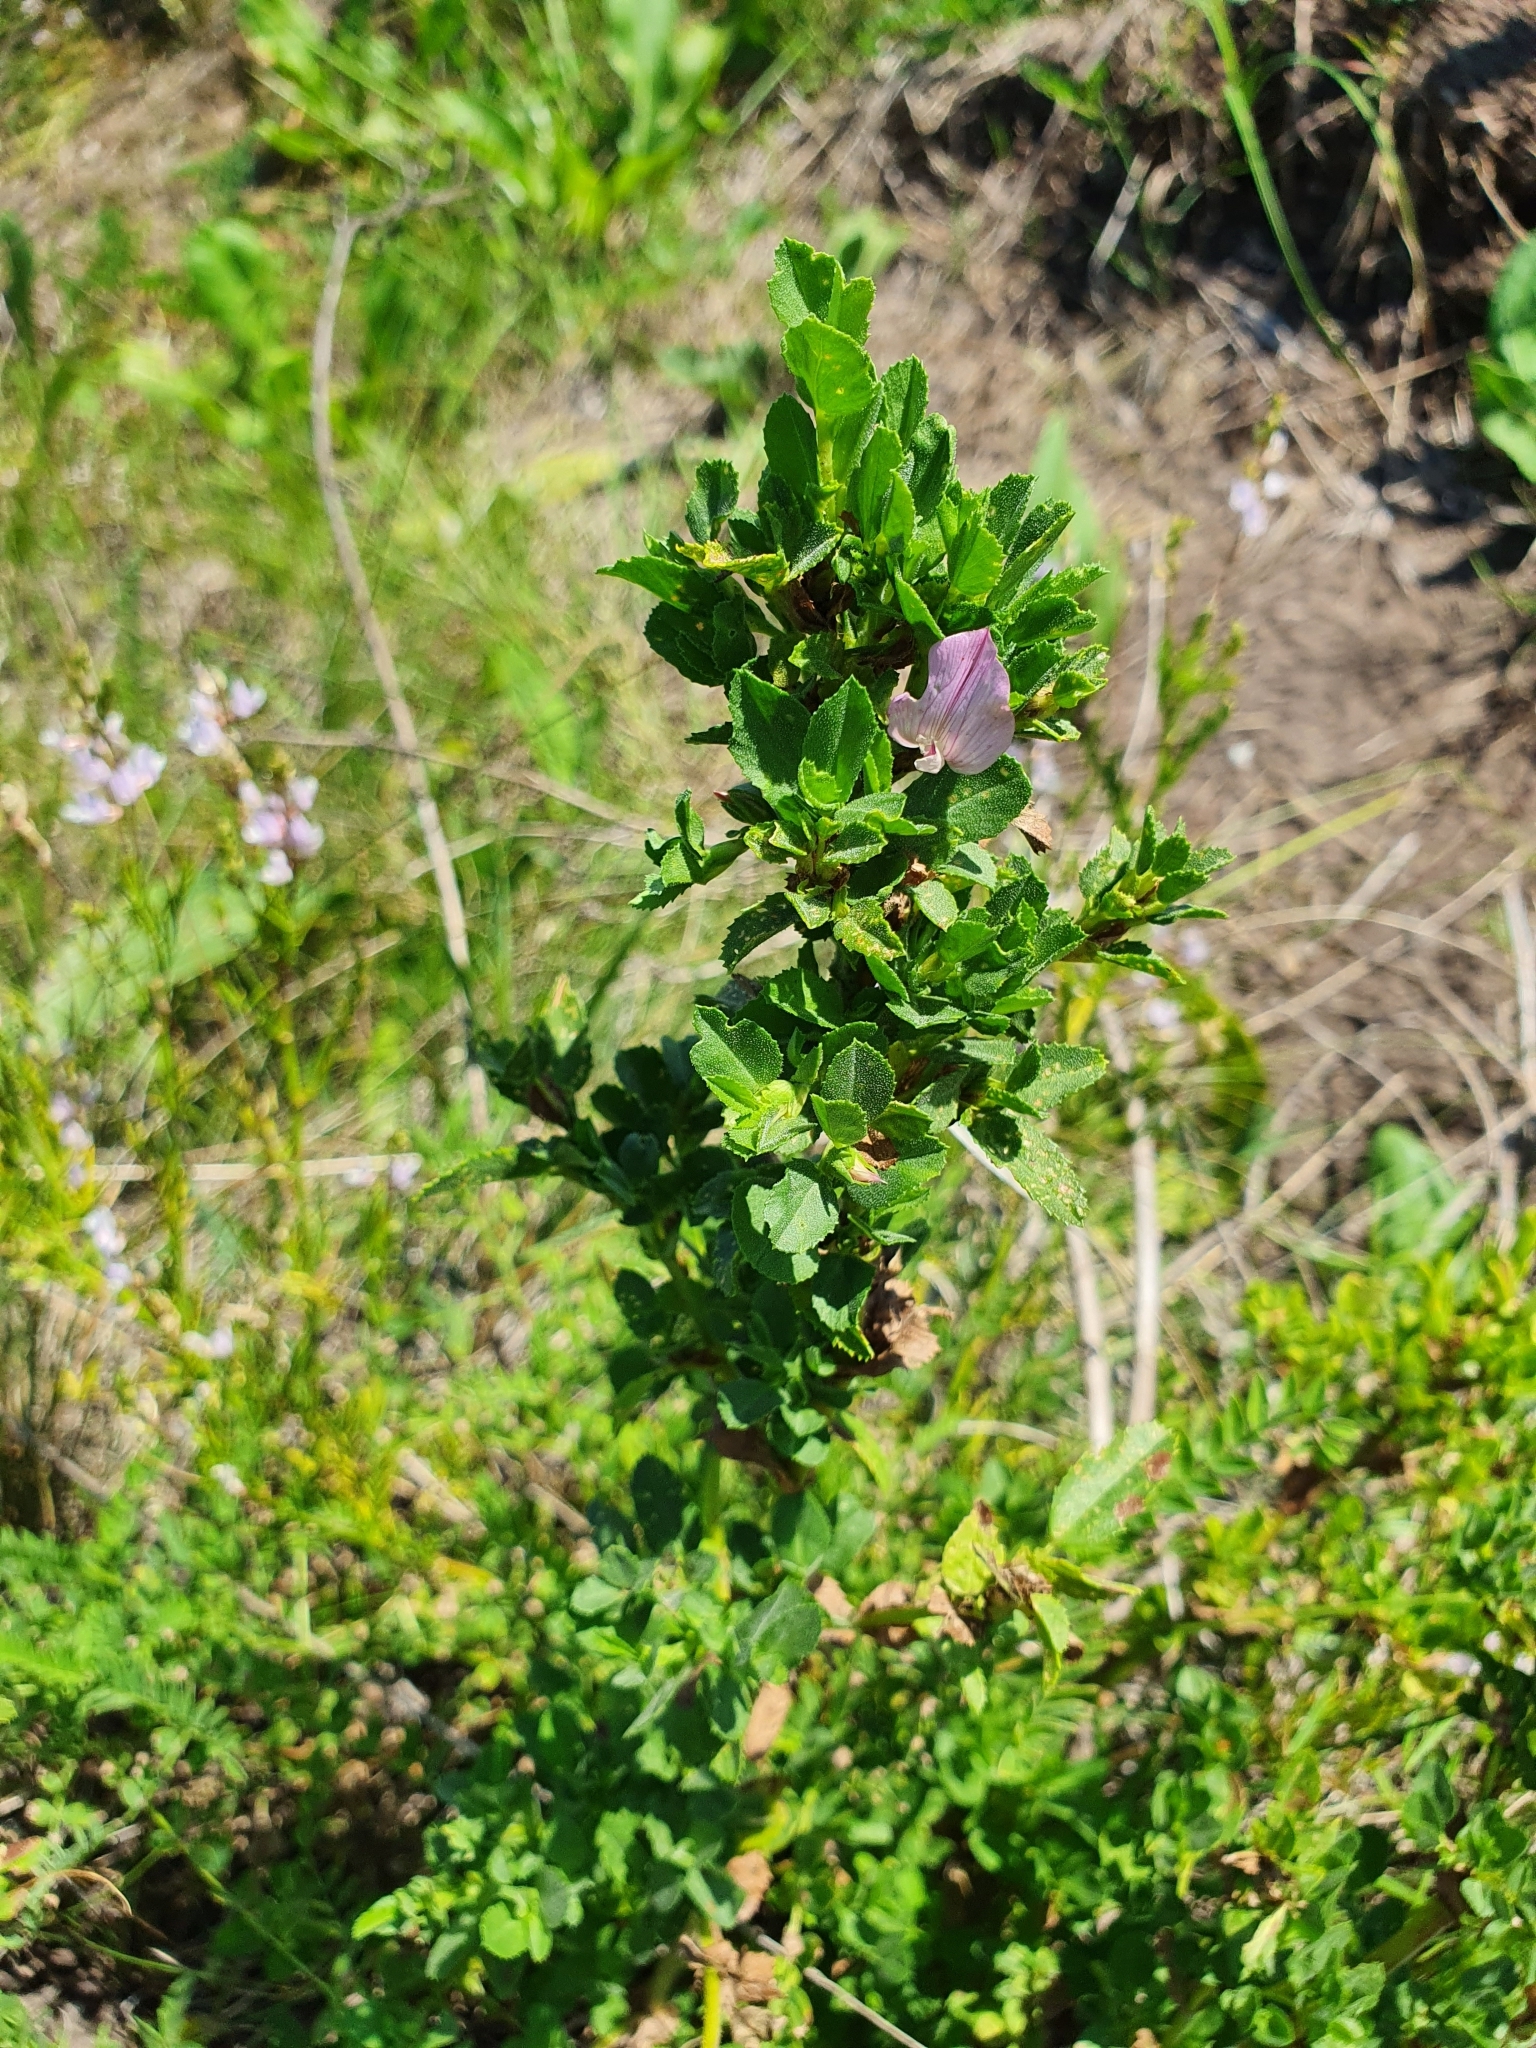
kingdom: Plantae
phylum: Tracheophyta
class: Magnoliopsida
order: Fabales
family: Fabaceae
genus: Ononis
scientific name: Ononis arvensis
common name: Field restharrow
